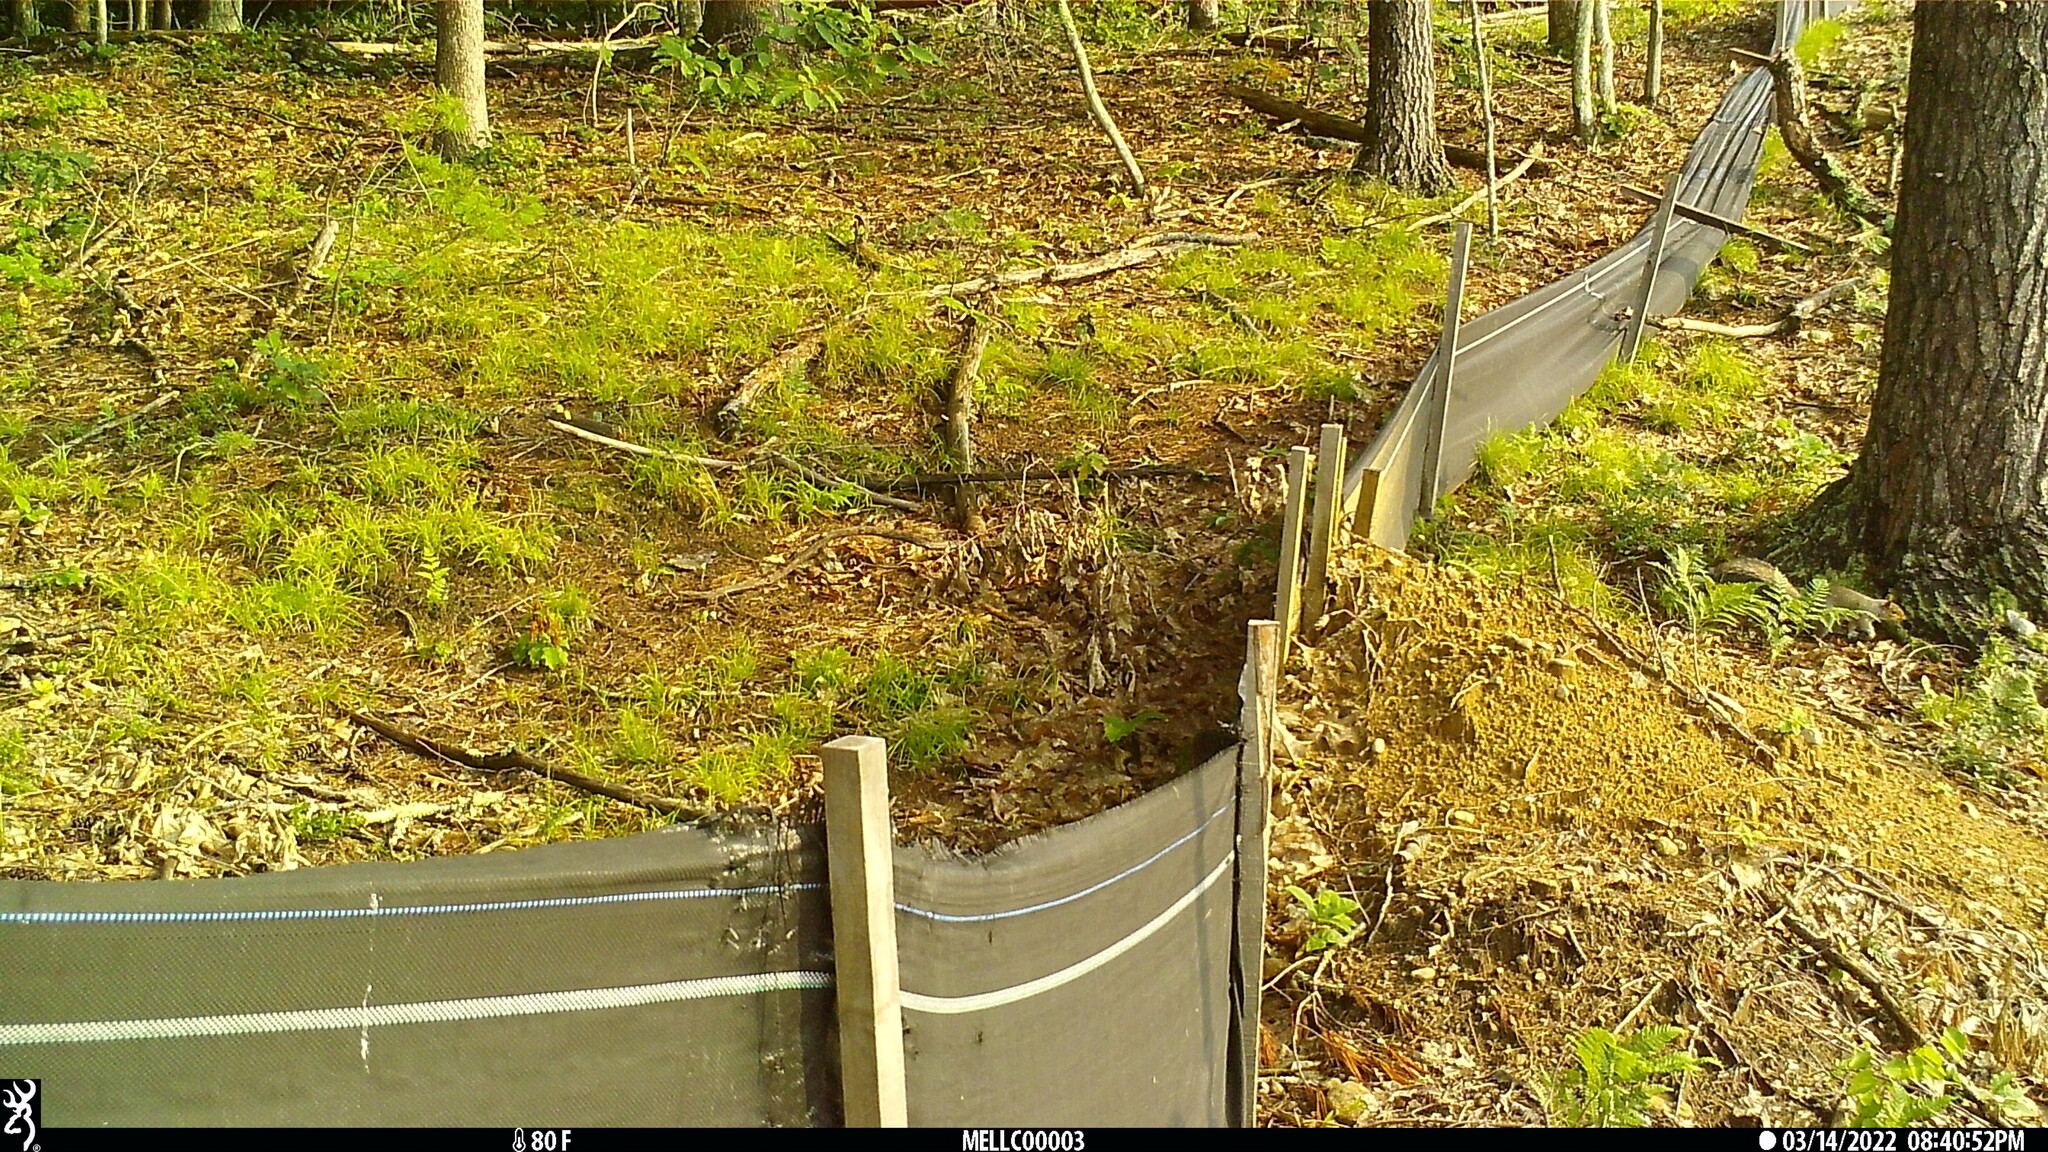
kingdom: Animalia
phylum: Chordata
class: Mammalia
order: Rodentia
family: Sciuridae
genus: Sciurus
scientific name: Sciurus carolinensis
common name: Eastern gray squirrel
